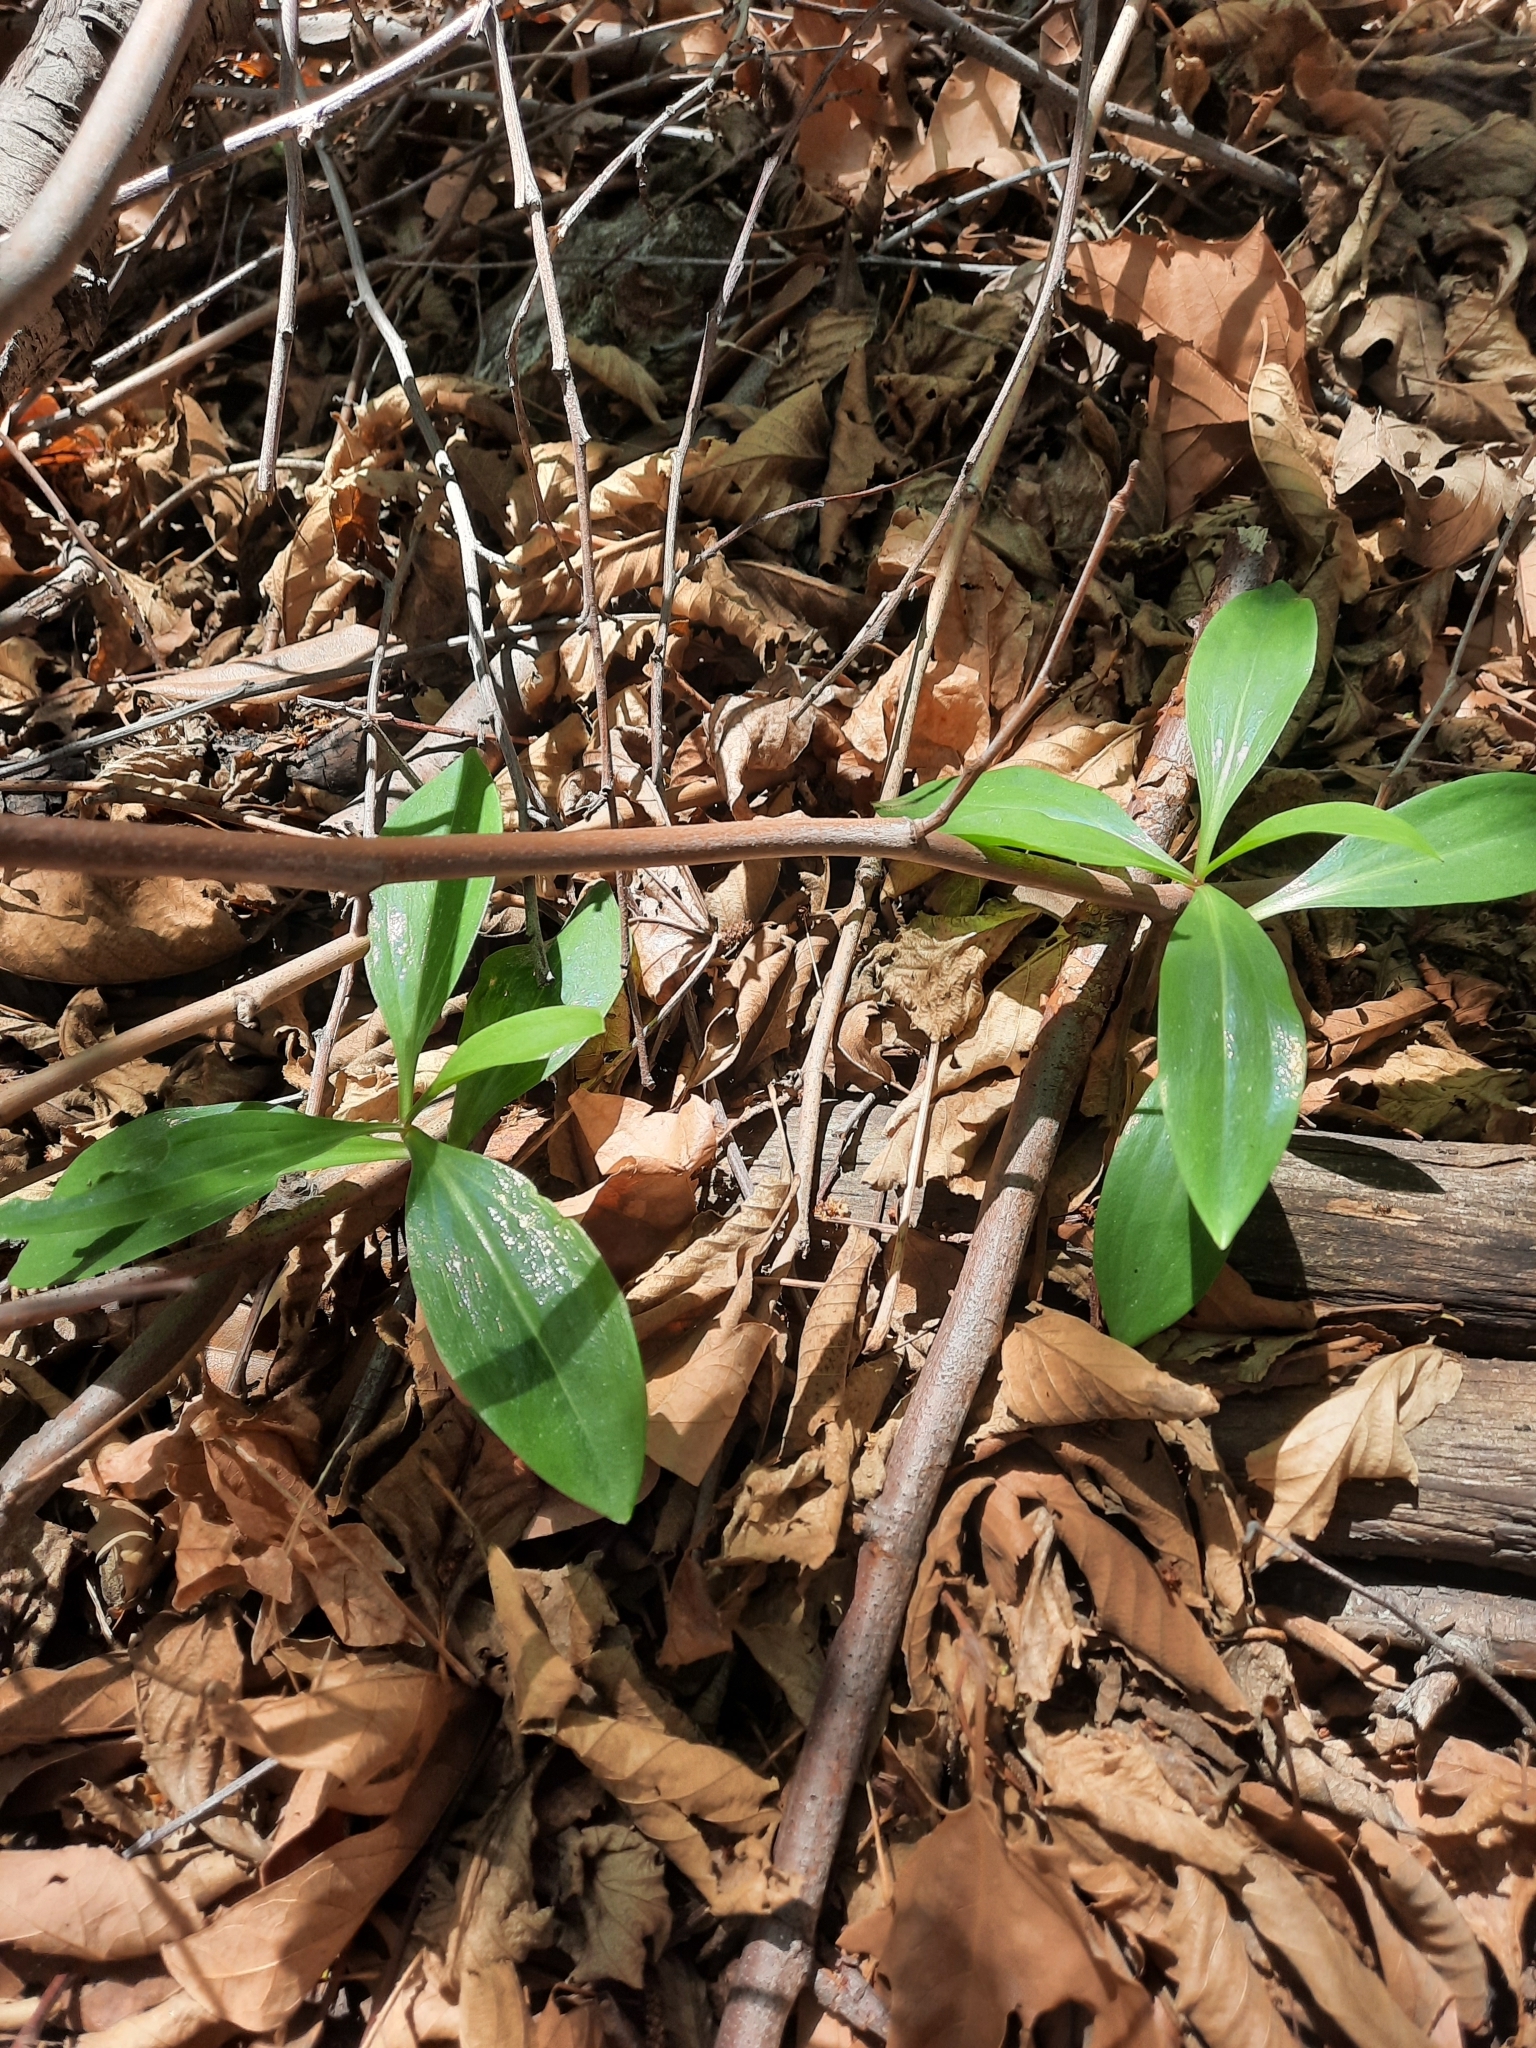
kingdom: Plantae
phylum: Tracheophyta
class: Liliopsida
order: Liliales
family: Liliaceae
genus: Lilium
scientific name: Lilium humboldtii
